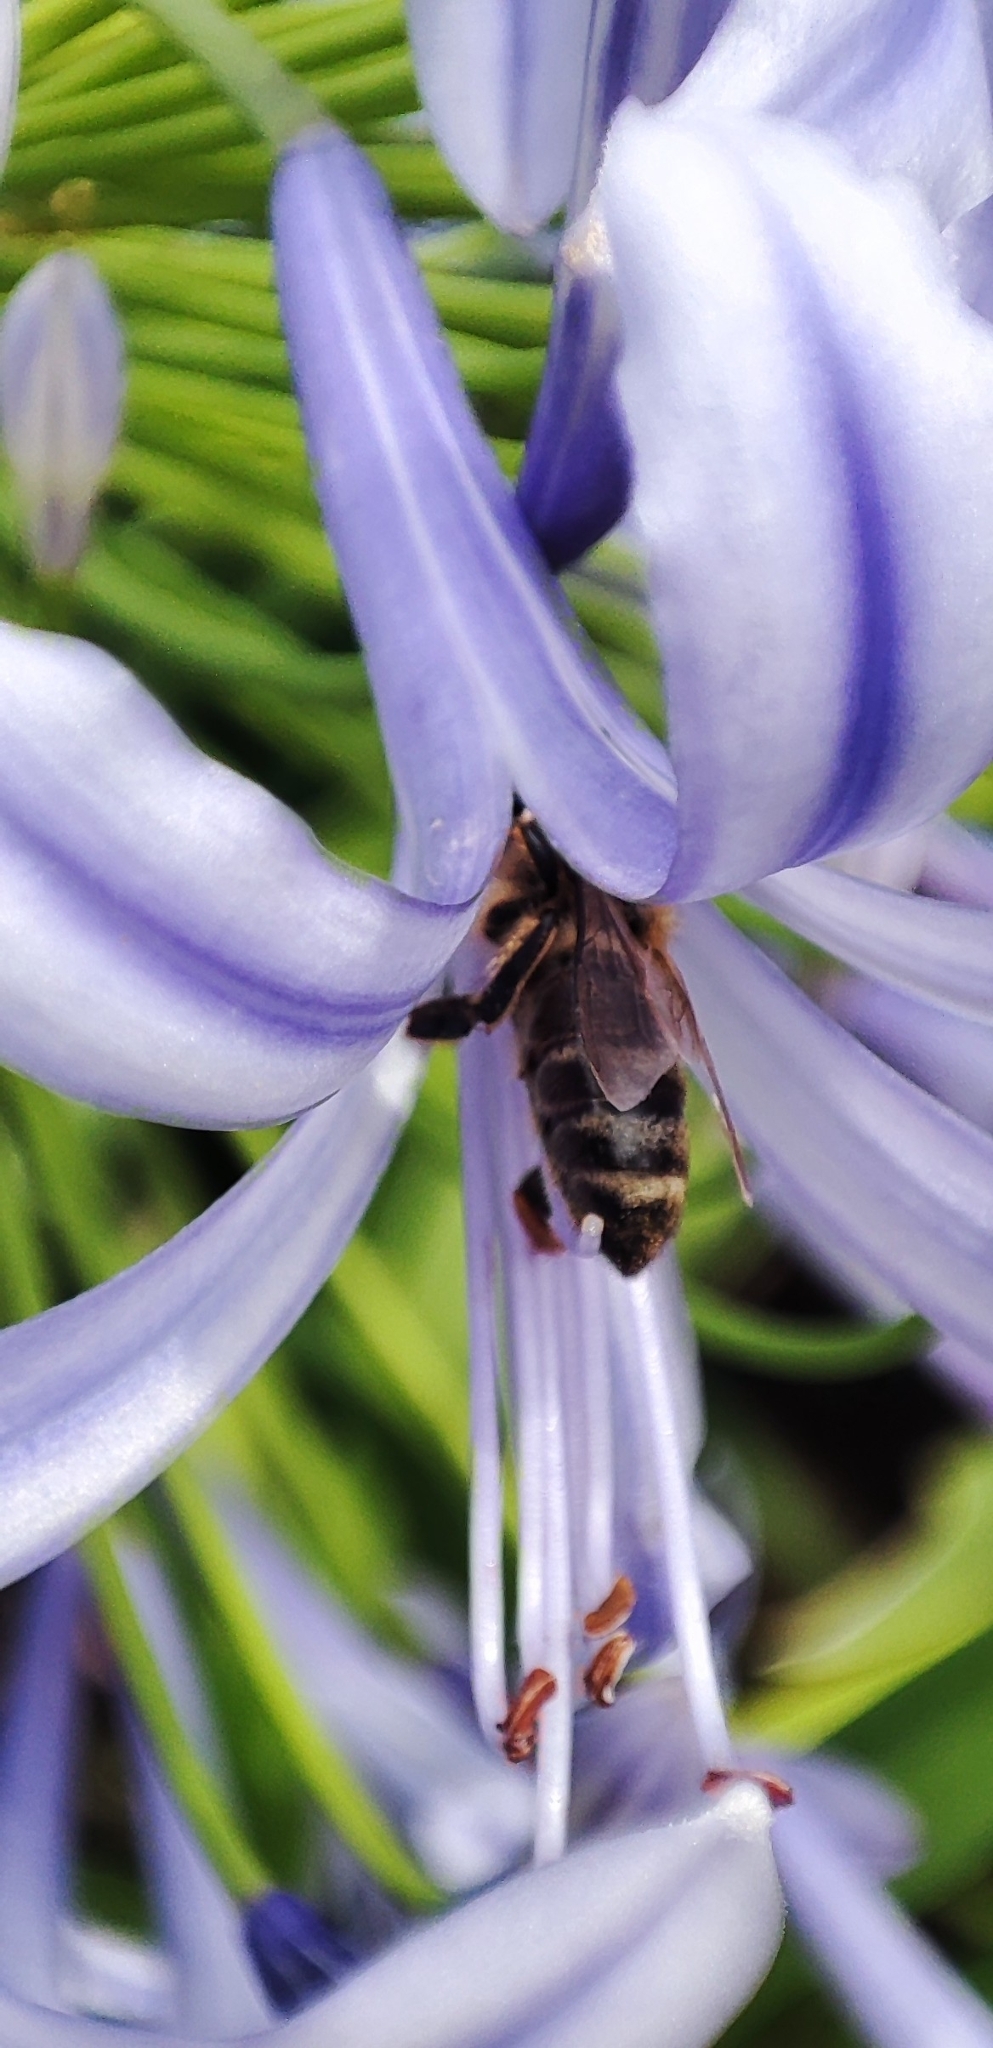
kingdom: Animalia
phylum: Arthropoda
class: Insecta
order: Hymenoptera
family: Apidae
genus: Apis
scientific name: Apis mellifera
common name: Honey bee
